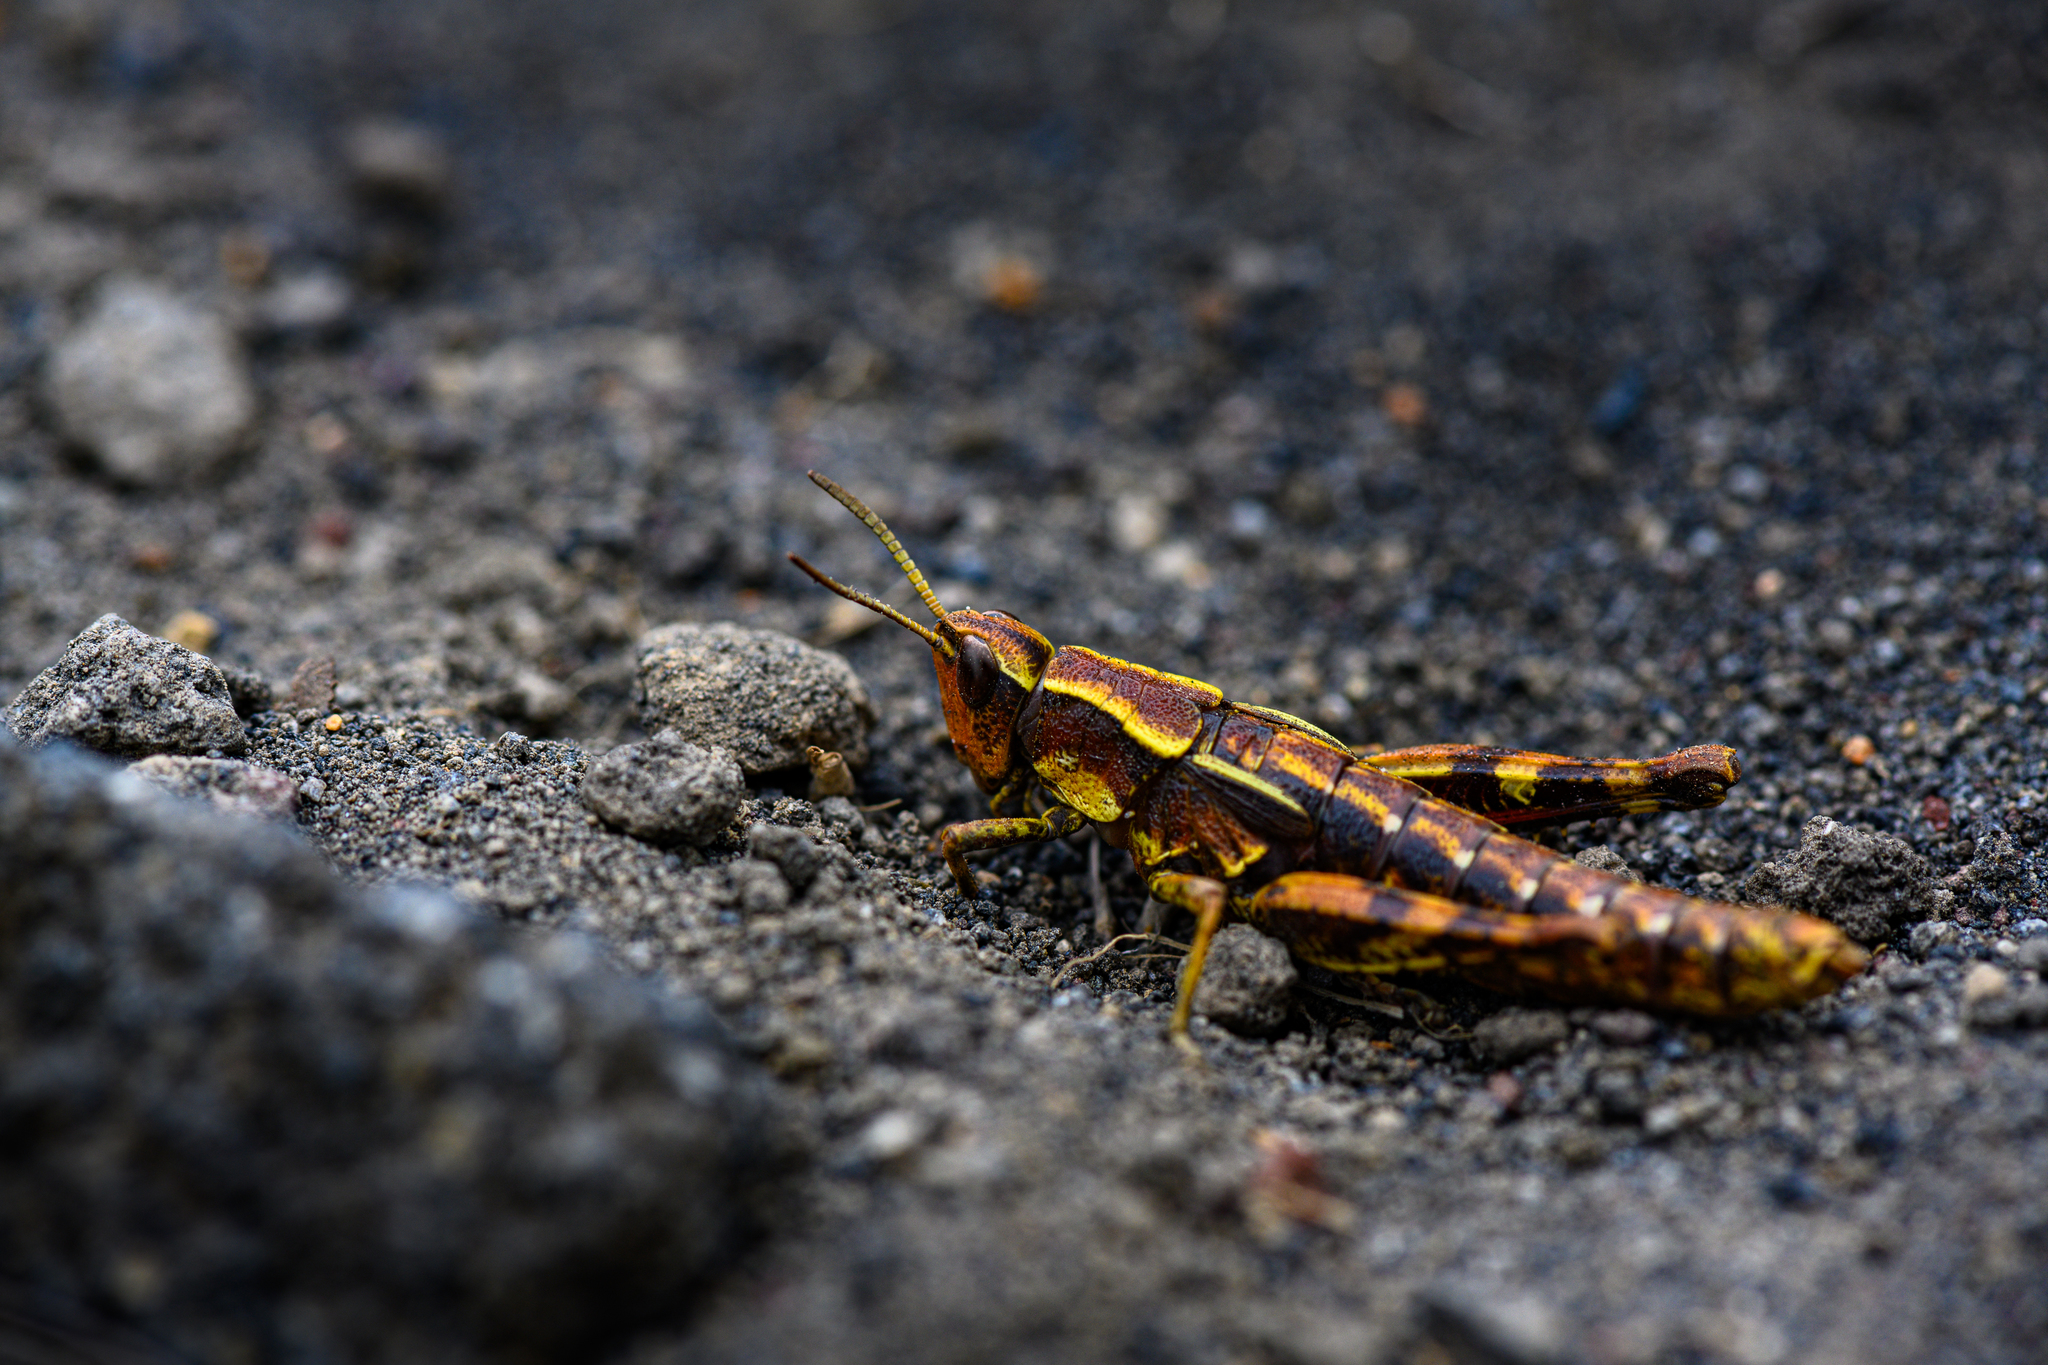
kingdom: Animalia
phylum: Arthropoda
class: Insecta
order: Orthoptera
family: Acrididae
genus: Sigaus
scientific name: Sigaus piliferus
